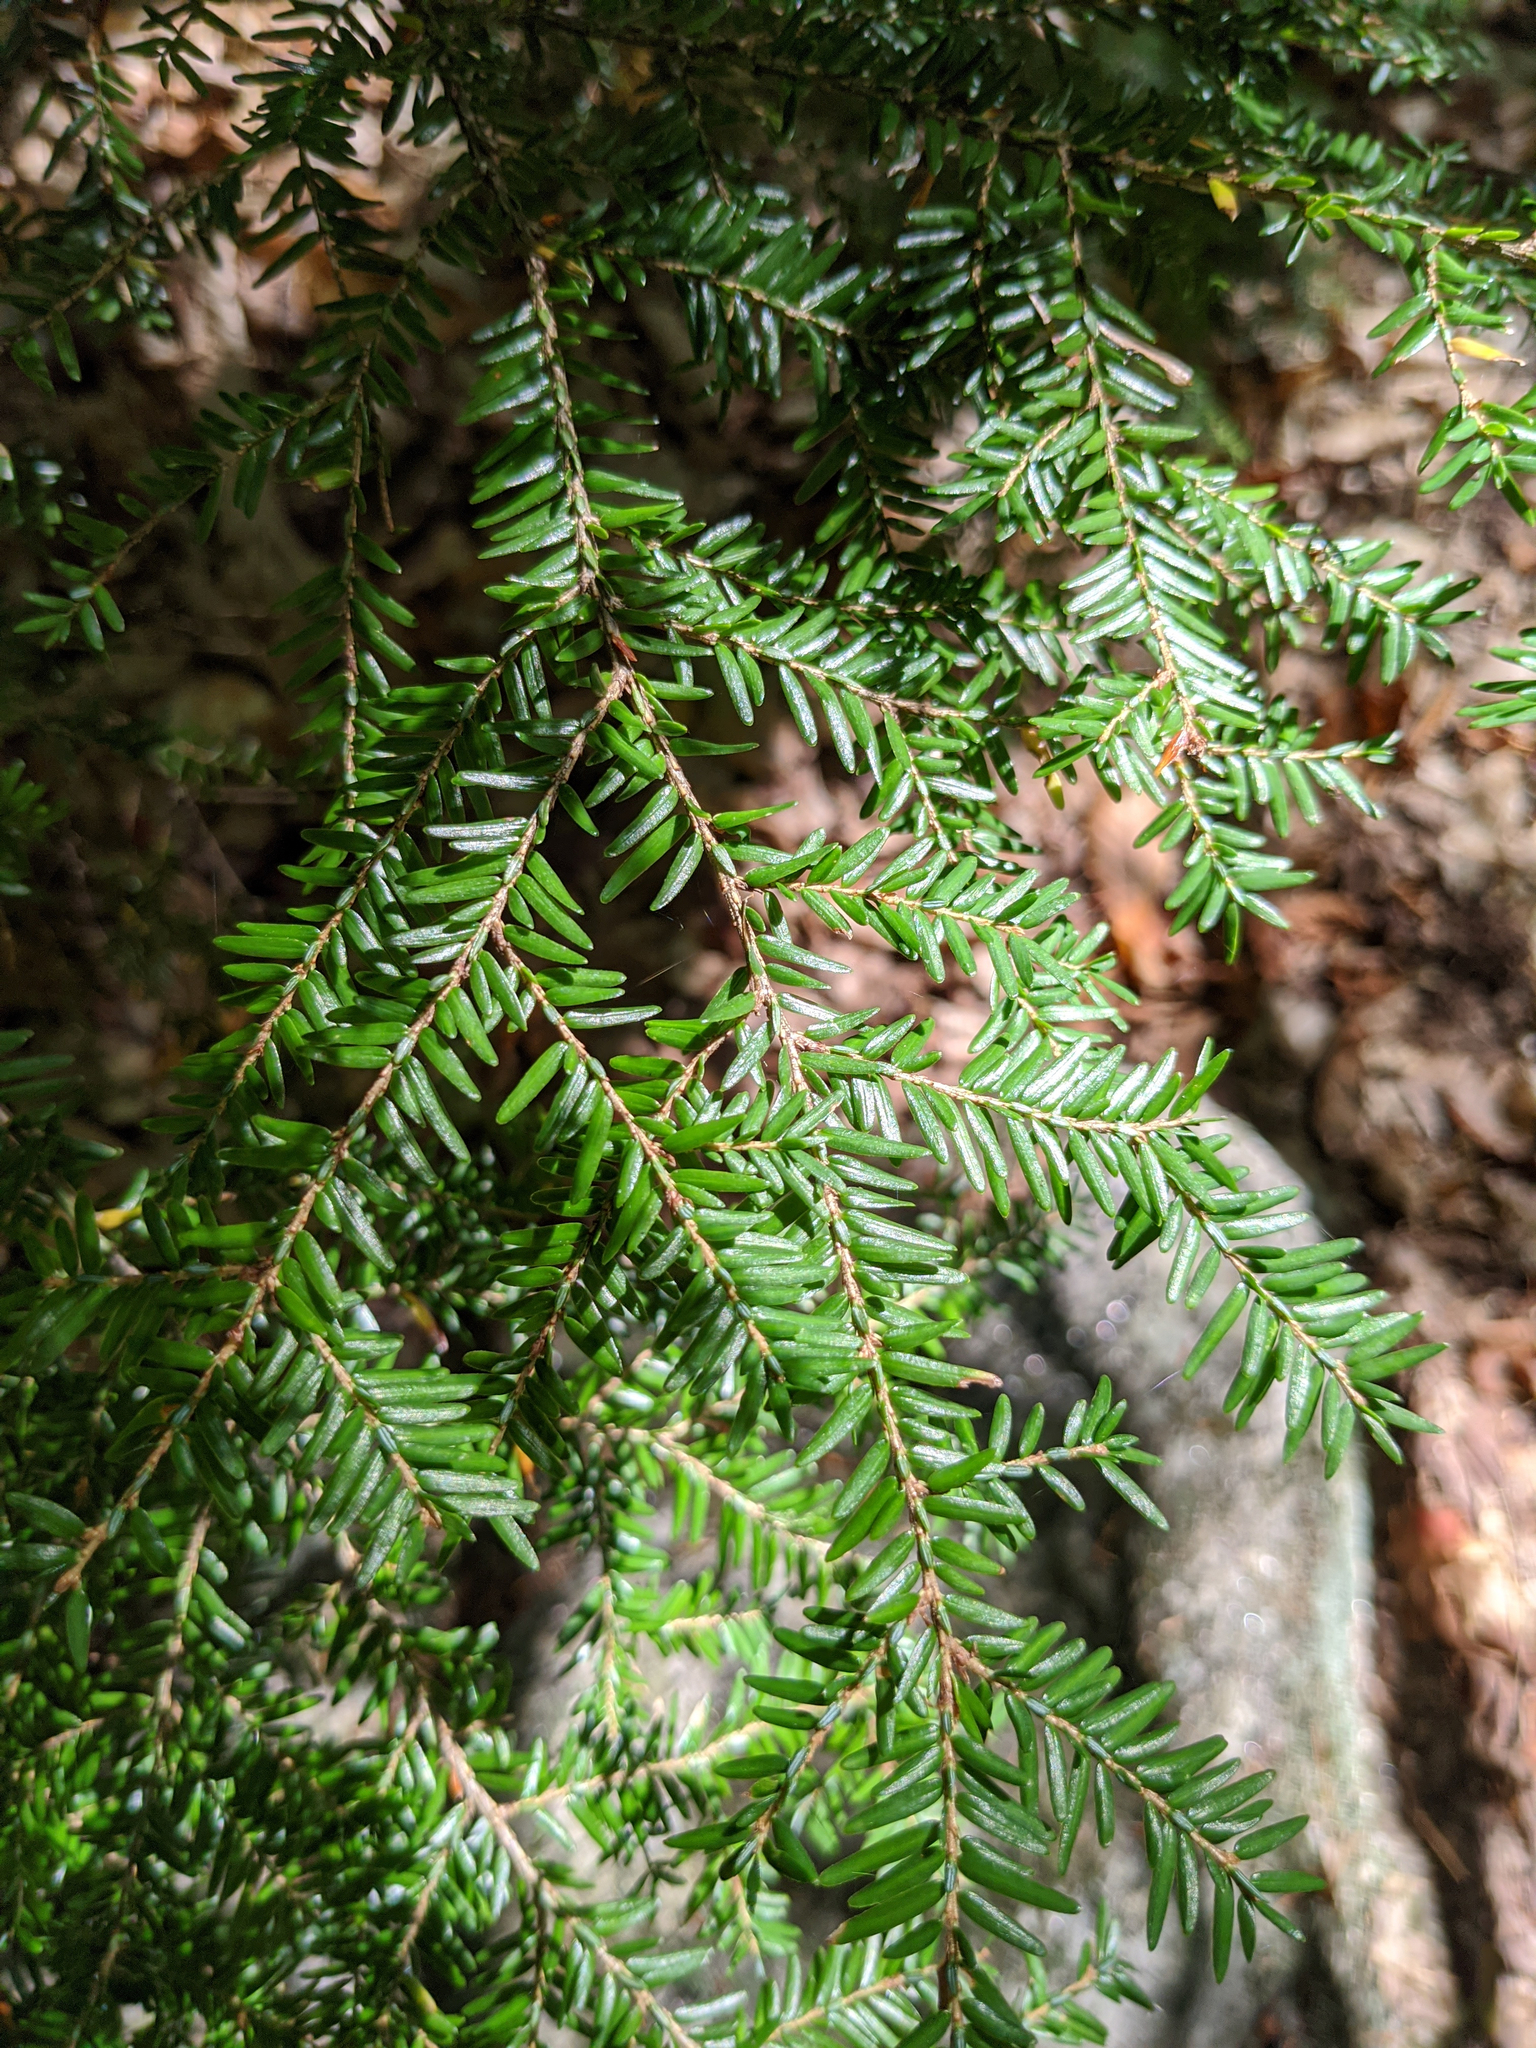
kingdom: Plantae
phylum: Tracheophyta
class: Pinopsida
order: Pinales
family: Pinaceae
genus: Tsuga
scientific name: Tsuga canadensis
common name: Eastern hemlock
